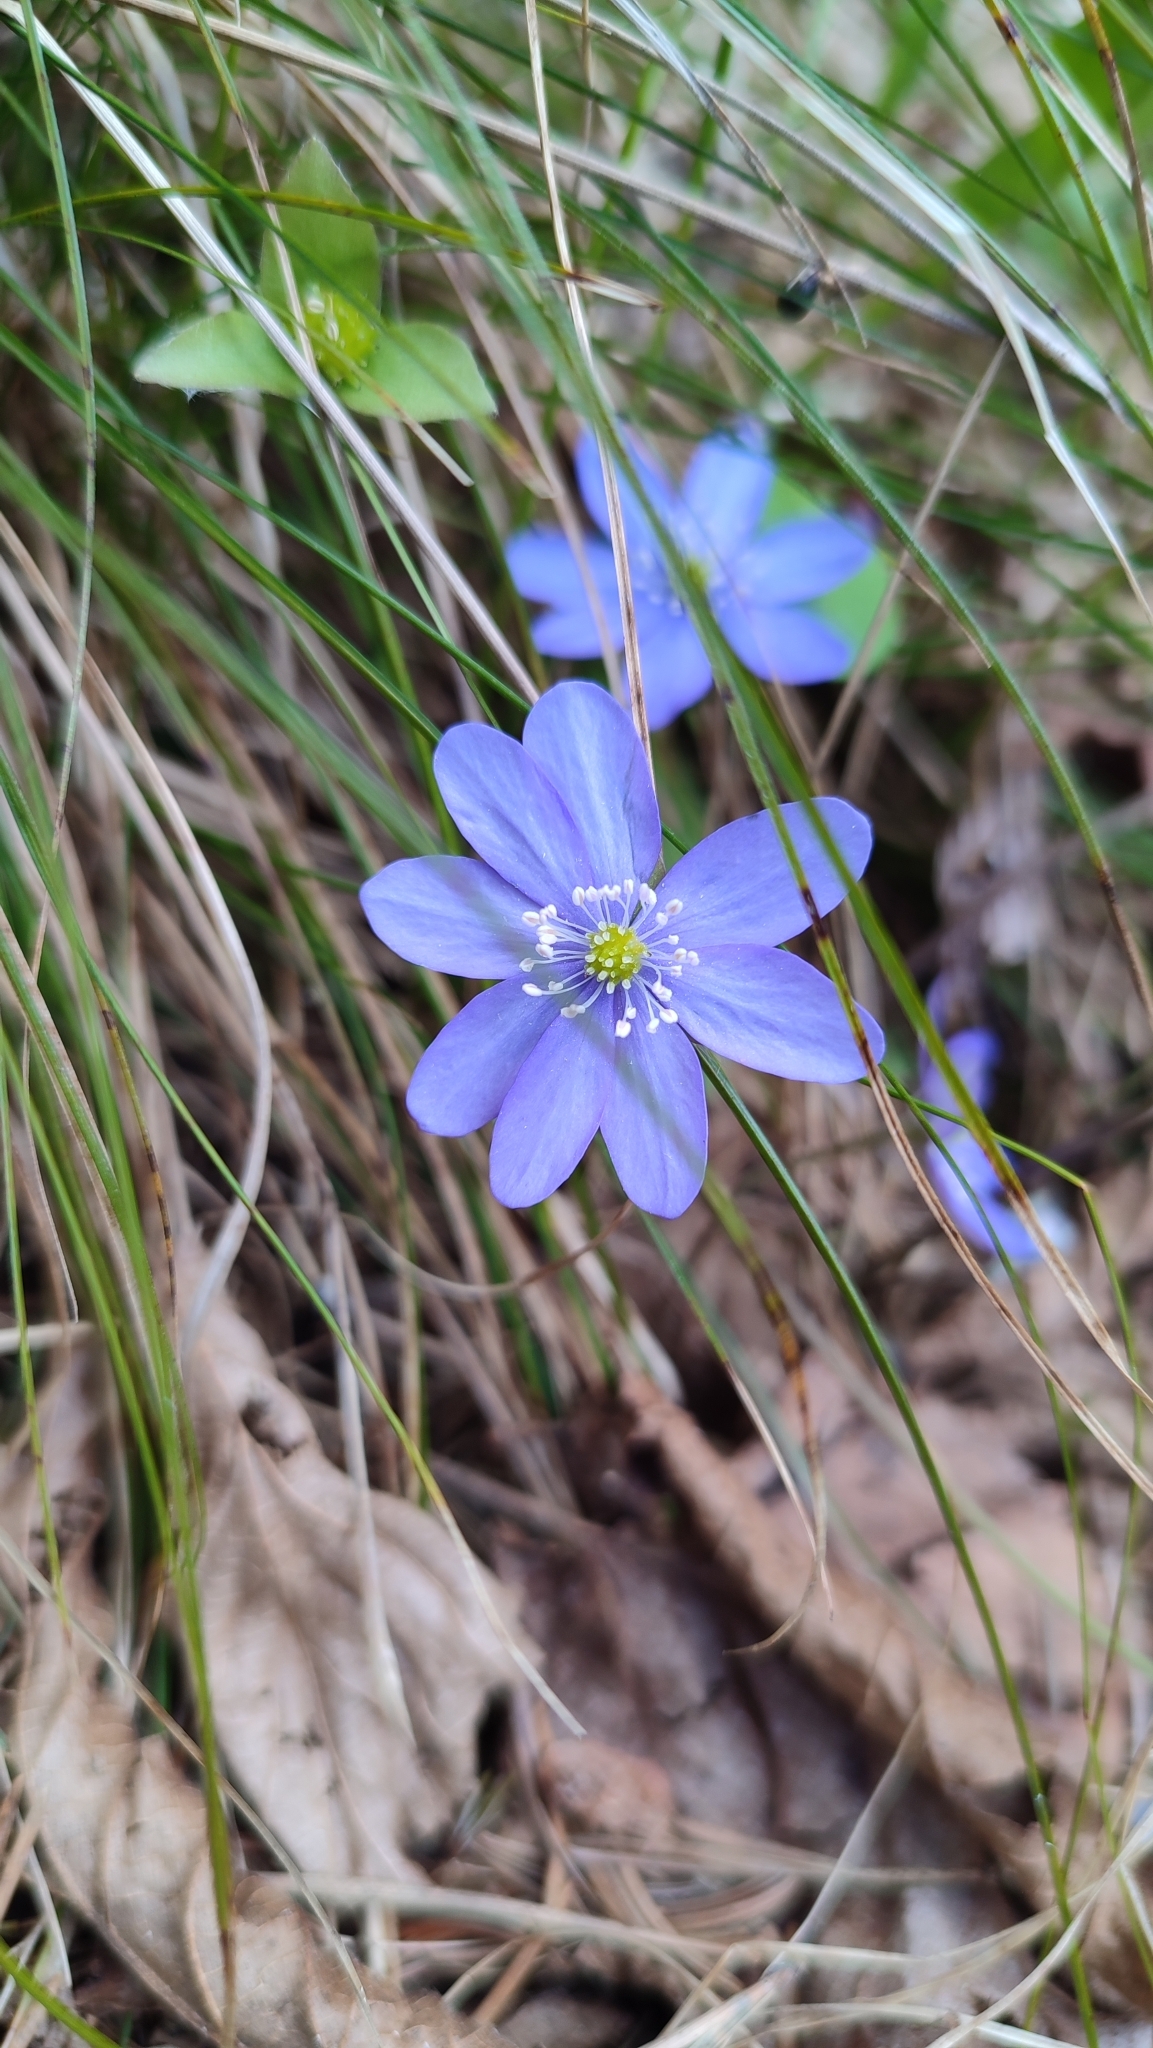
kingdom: Plantae
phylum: Tracheophyta
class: Magnoliopsida
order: Ranunculales
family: Ranunculaceae
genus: Hepatica
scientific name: Hepatica nobilis
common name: Liverleaf
